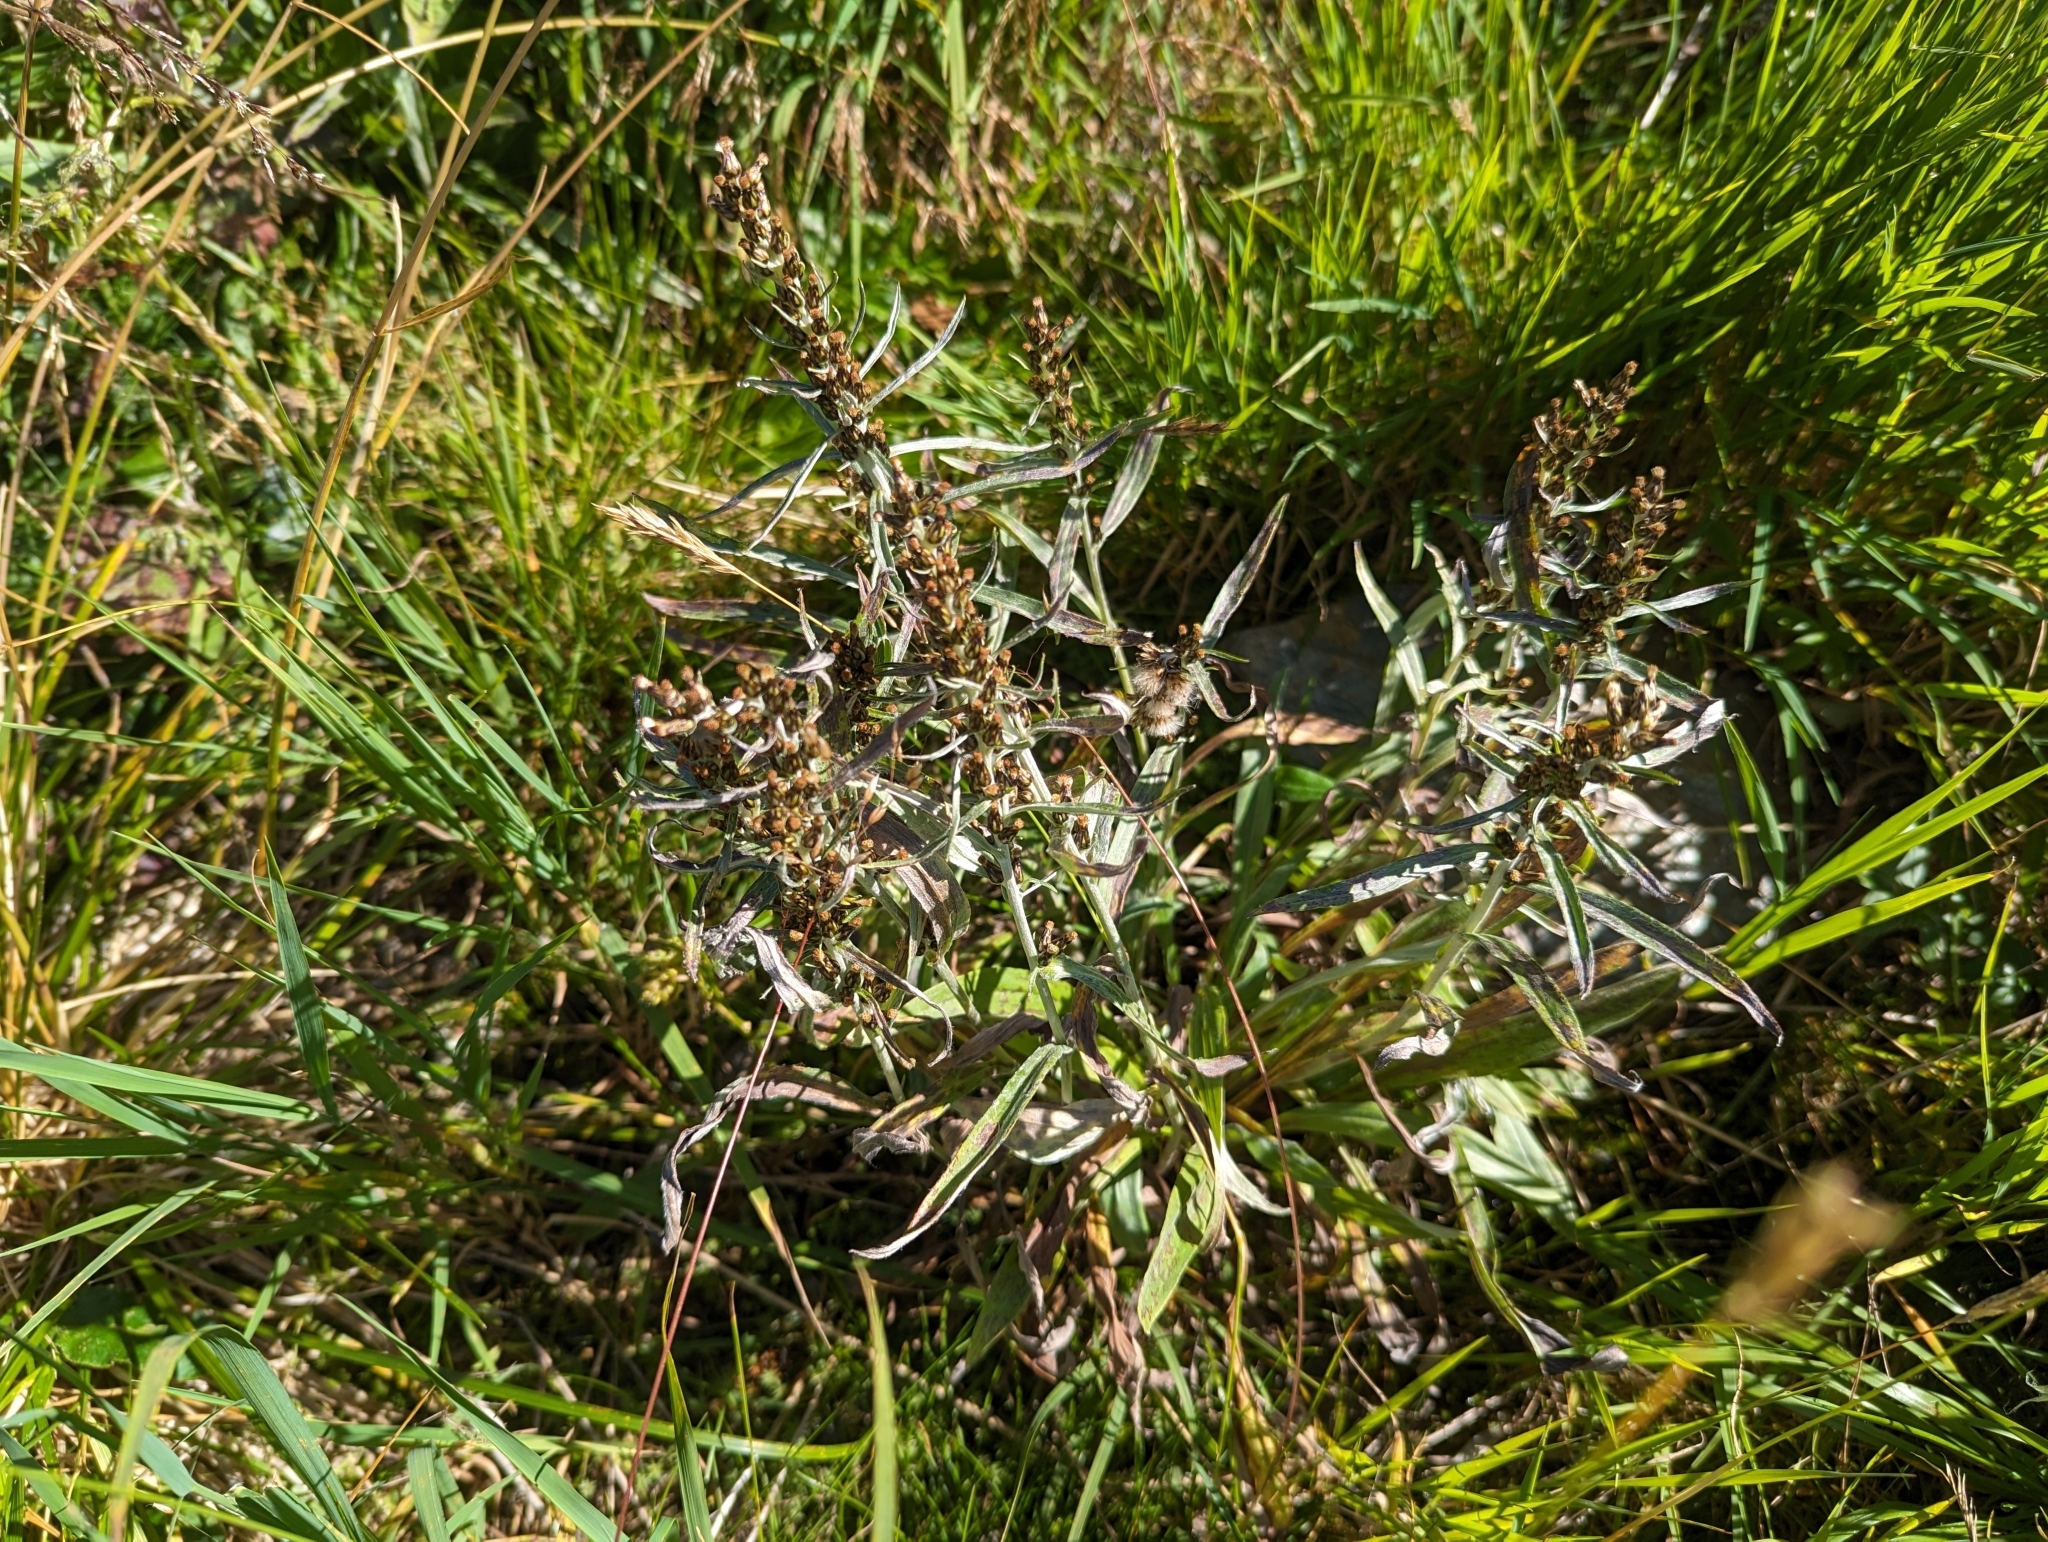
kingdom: Plantae
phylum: Tracheophyta
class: Magnoliopsida
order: Asterales
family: Asteraceae
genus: Omalotheca
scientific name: Omalotheca norvegica
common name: Norwegian arctic-cudweed
